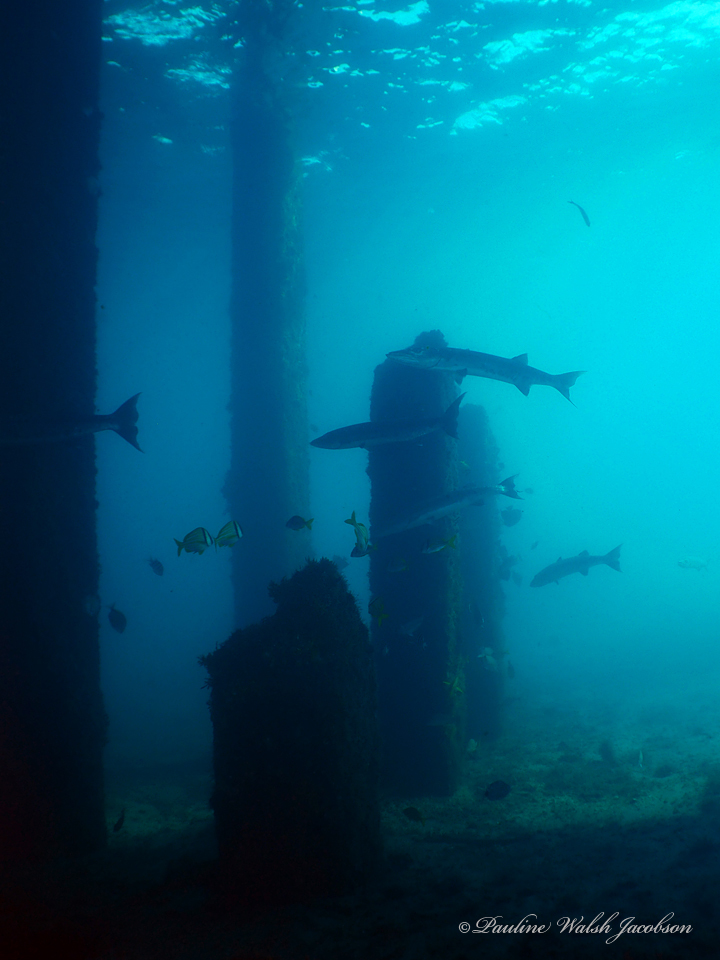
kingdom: Animalia
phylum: Chordata
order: Perciformes
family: Sphyraenidae
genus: Sphyraena
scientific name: Sphyraena barracuda
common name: Great barracuda
